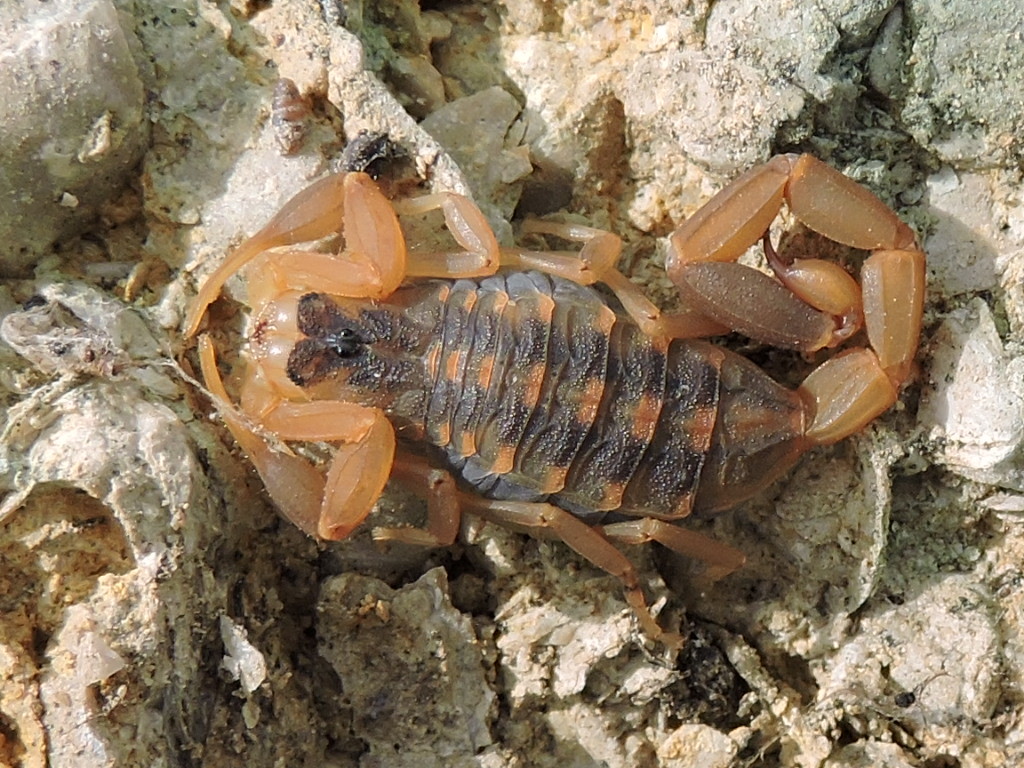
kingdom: Animalia
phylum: Arthropoda
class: Arachnida
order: Scorpiones
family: Buthidae
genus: Centruroides
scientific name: Centruroides vittatus
